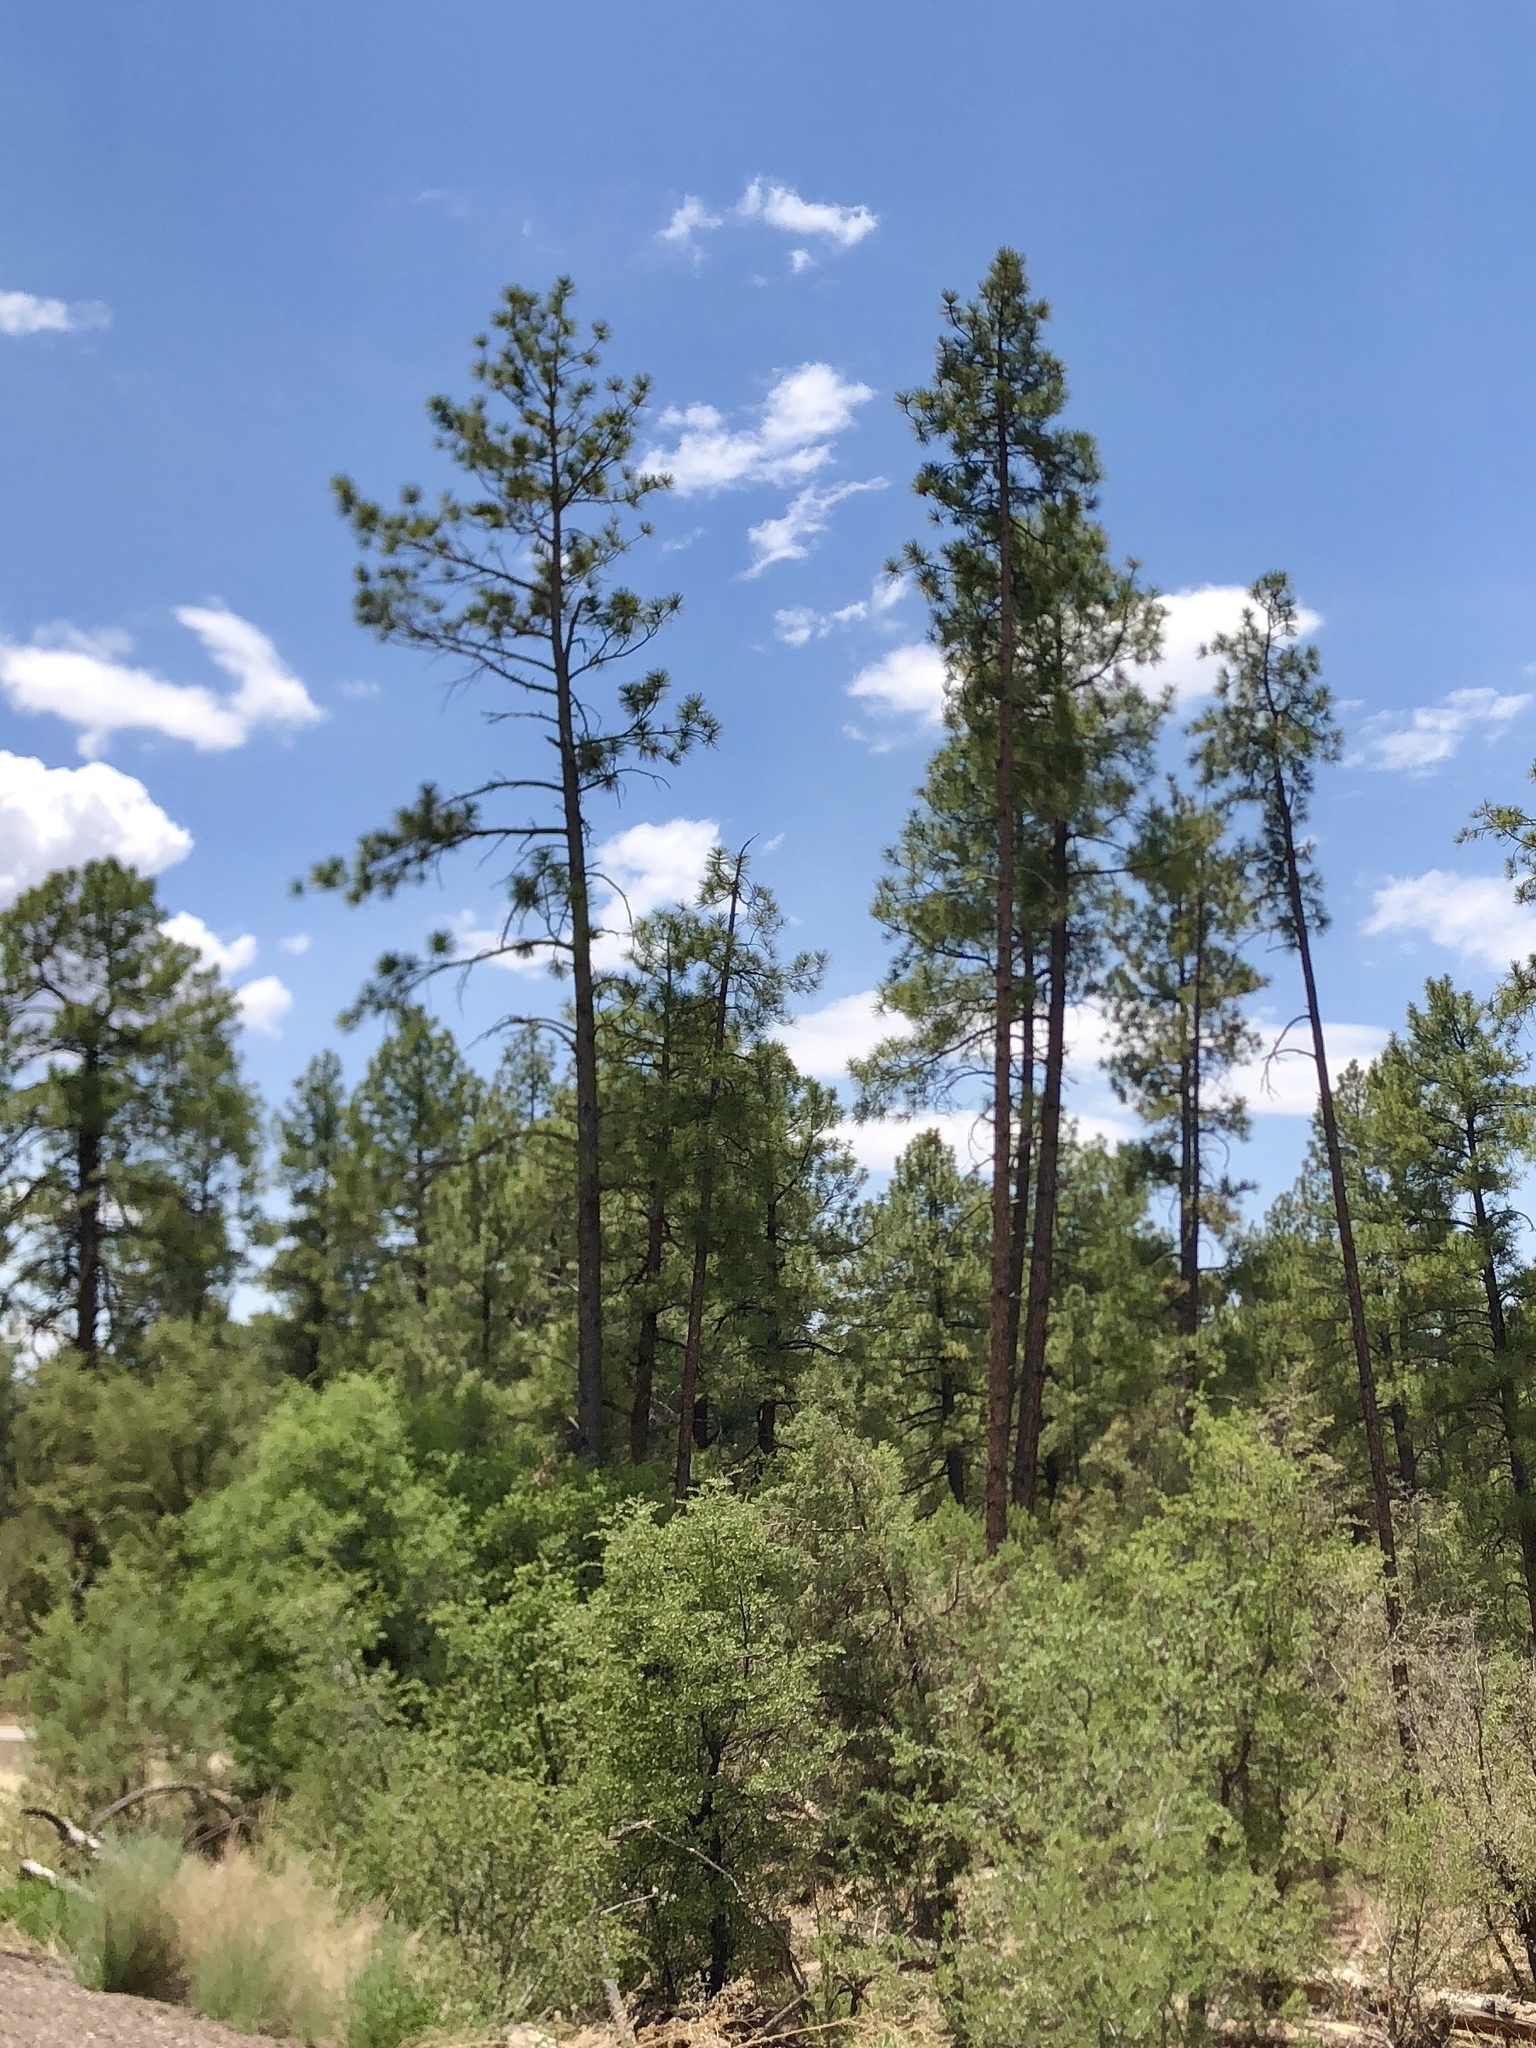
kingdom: Plantae
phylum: Tracheophyta
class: Pinopsida
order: Pinales
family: Pinaceae
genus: Pinus
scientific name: Pinus ponderosa
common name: Western yellow-pine
